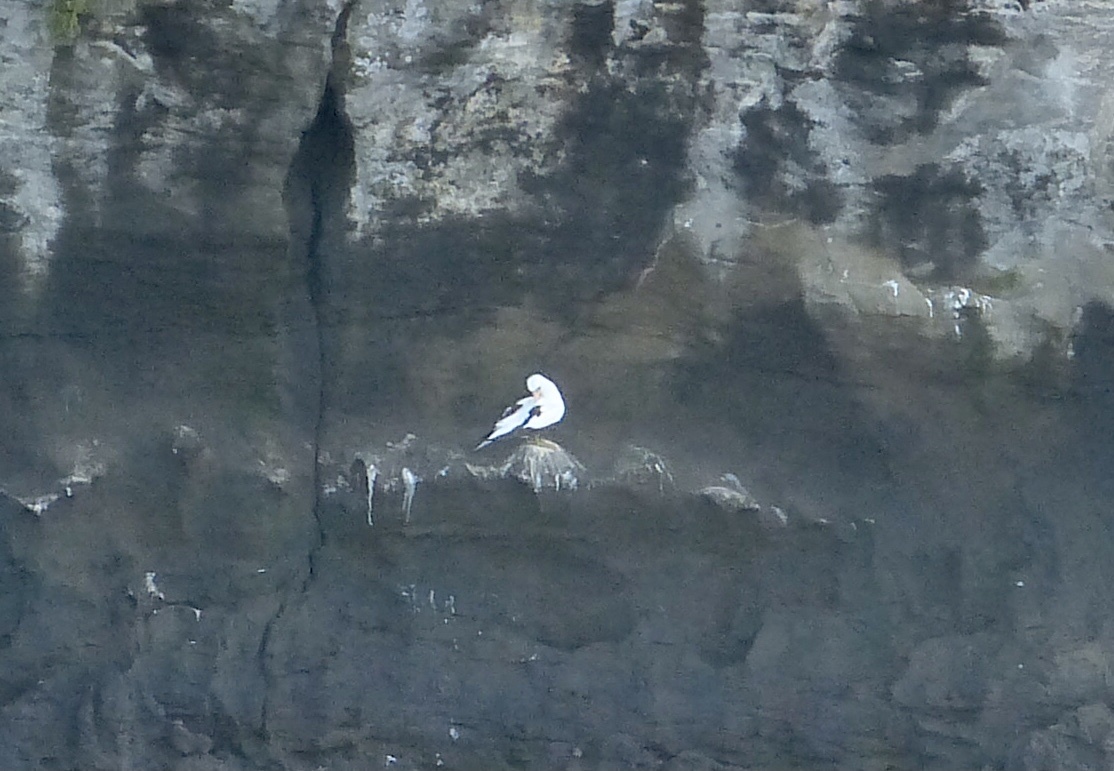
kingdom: Animalia
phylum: Chordata
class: Aves
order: Suliformes
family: Sulidae
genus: Sula
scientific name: Sula granti
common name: Nazca booby
